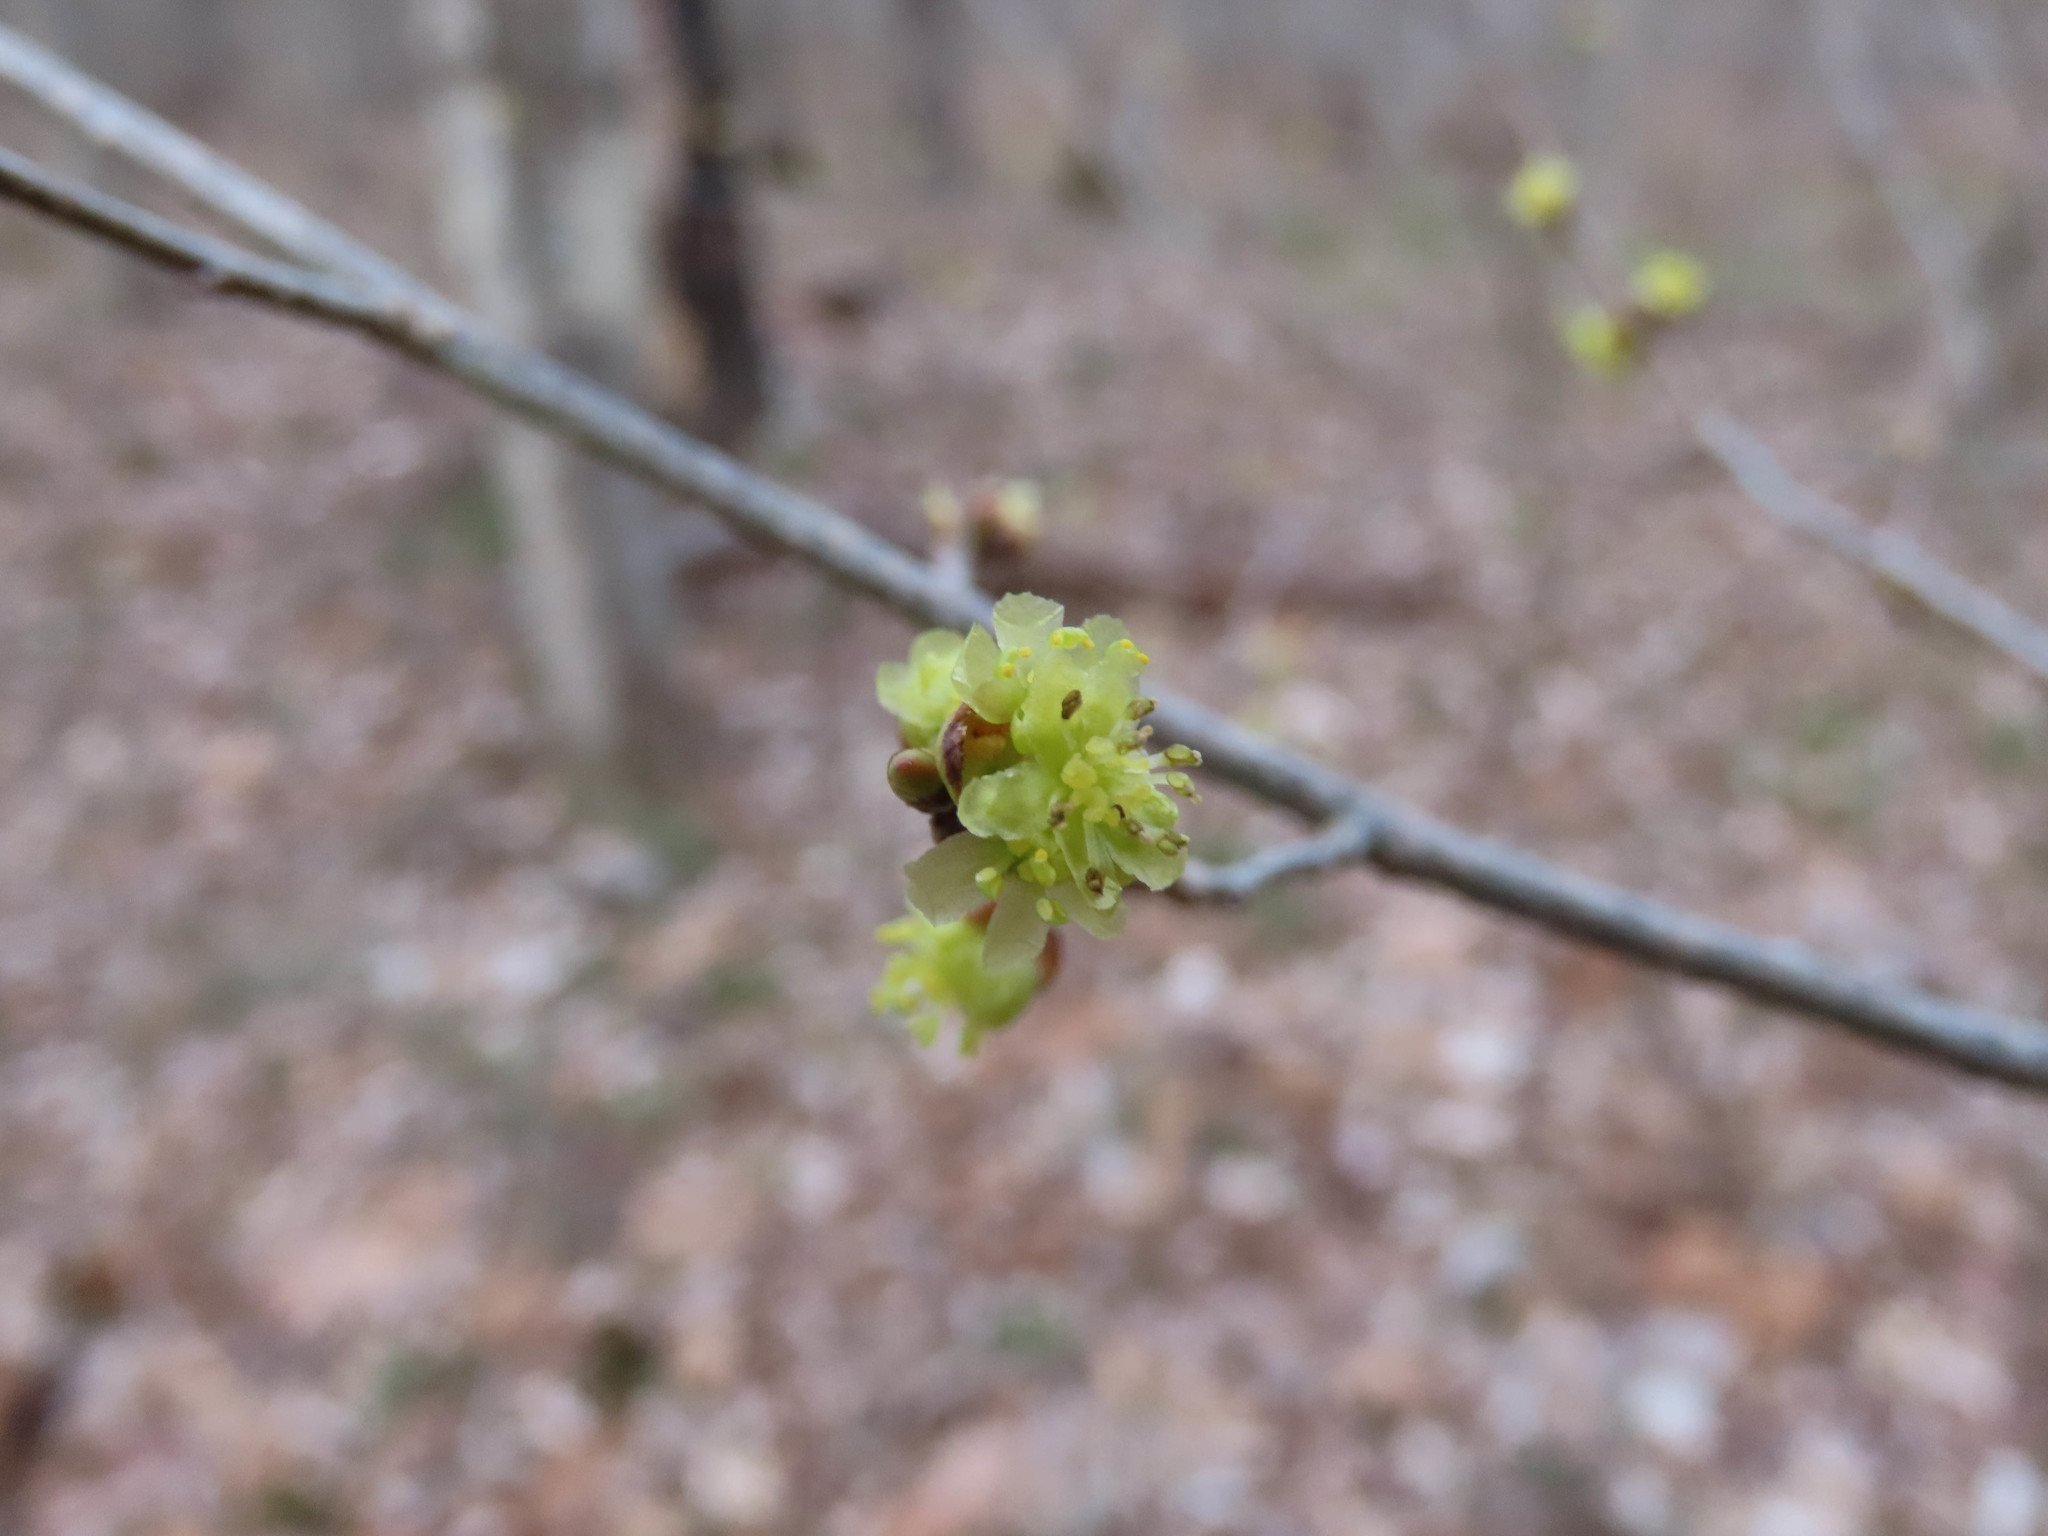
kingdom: Plantae
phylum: Tracheophyta
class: Magnoliopsida
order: Laurales
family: Lauraceae
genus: Lindera
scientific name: Lindera benzoin
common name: Spicebush
